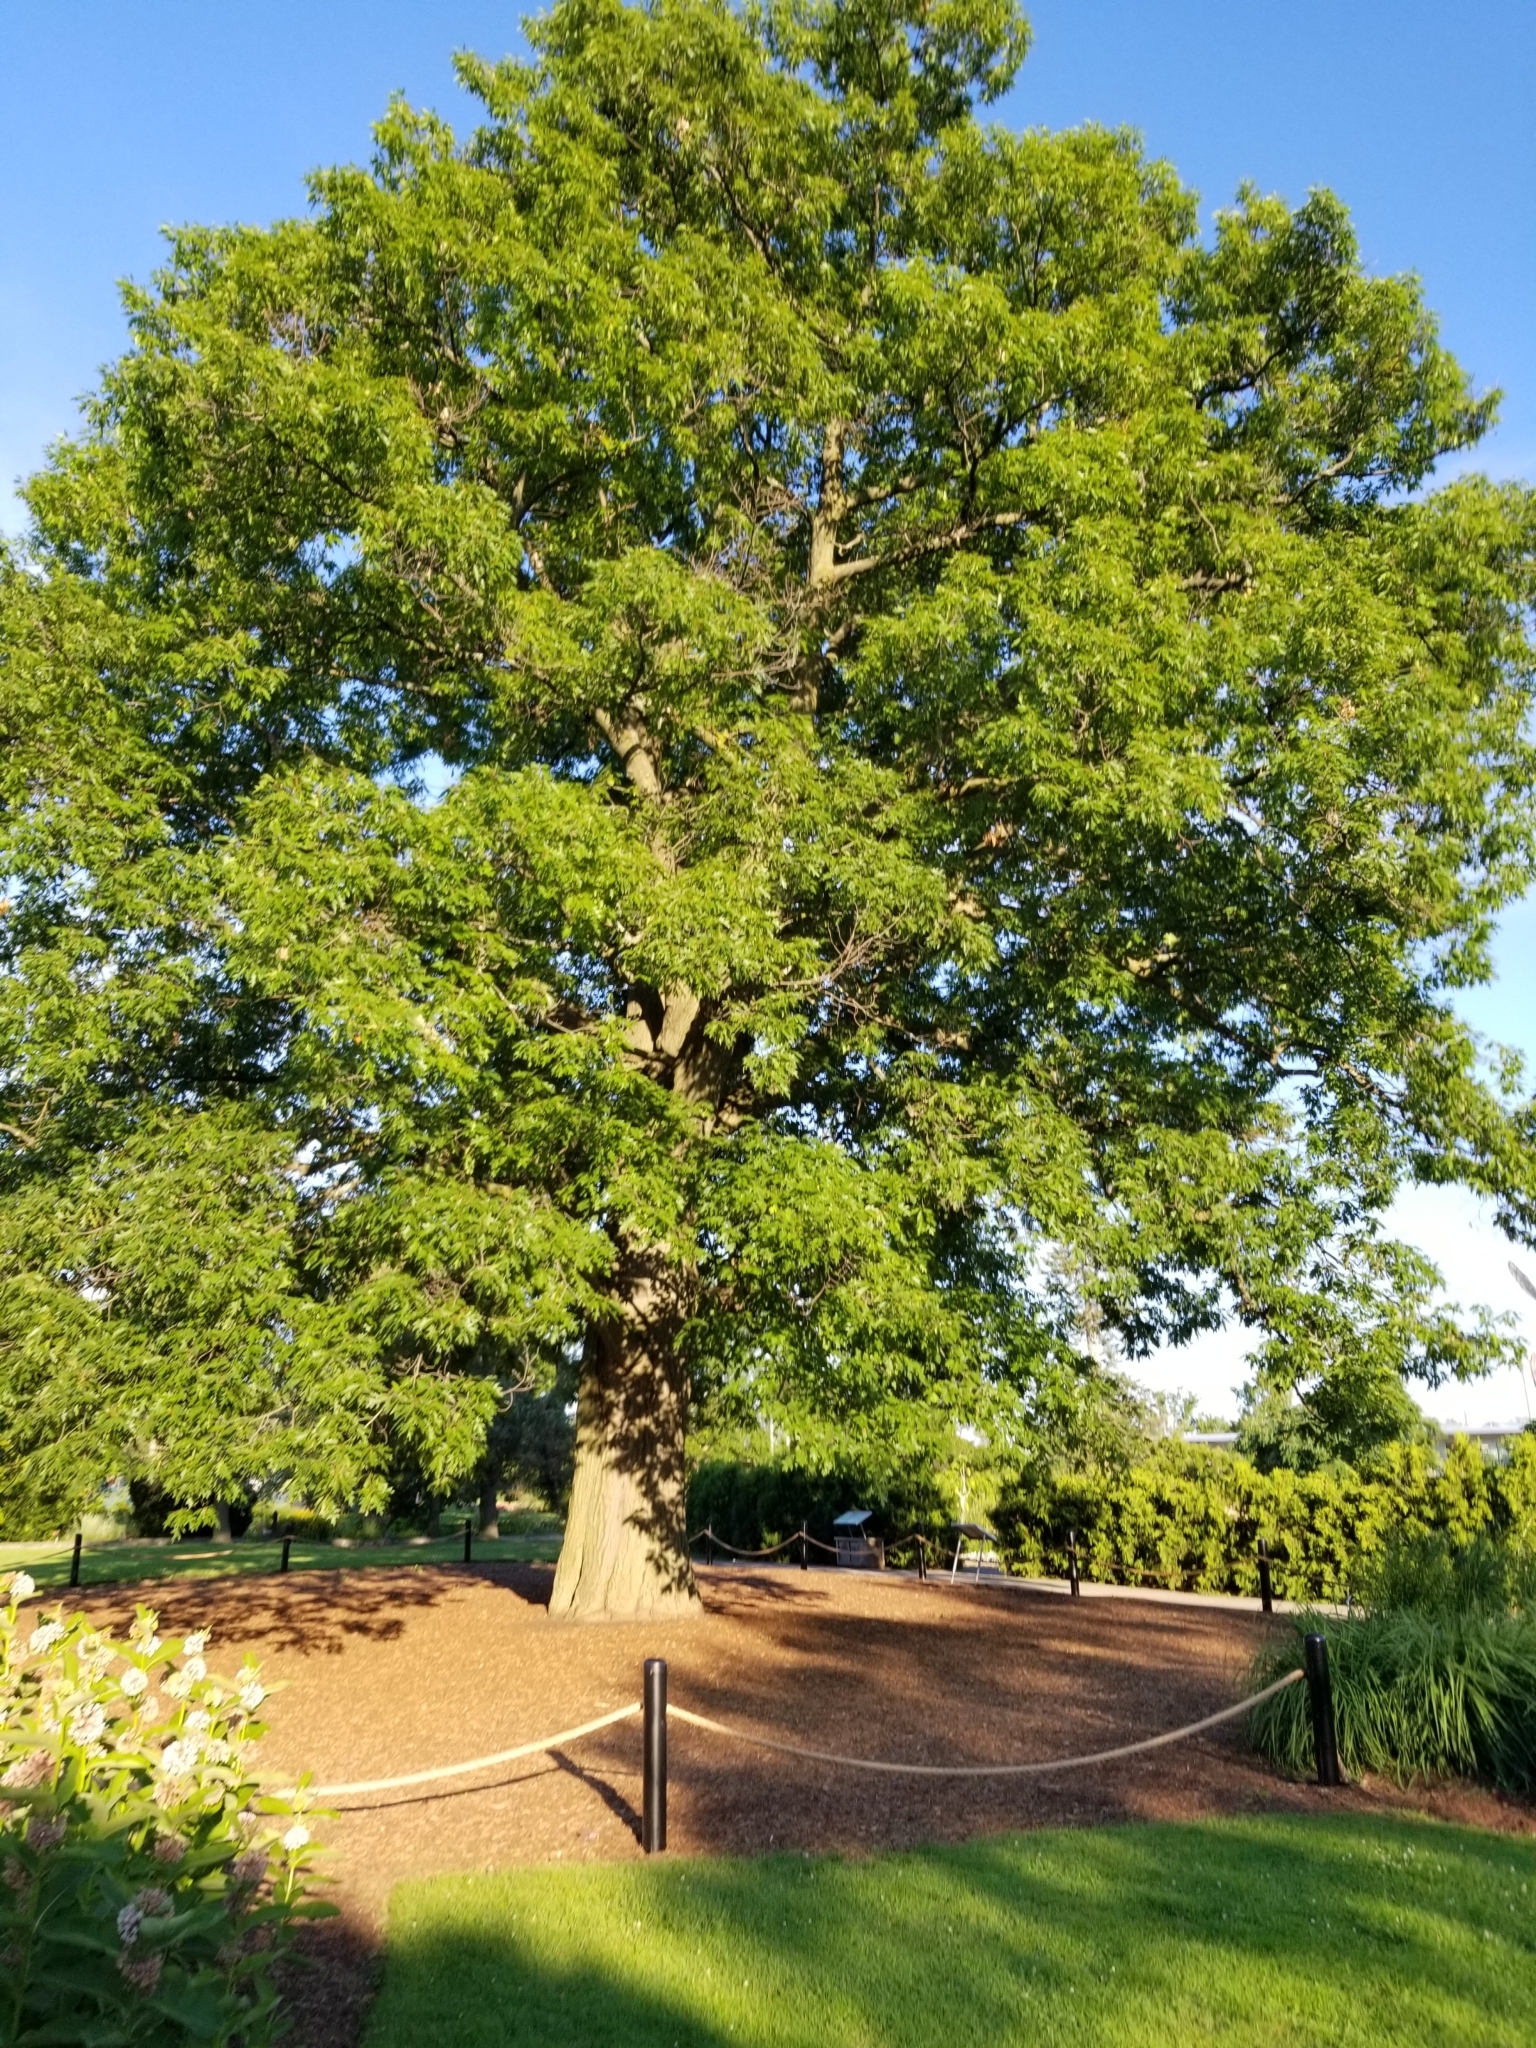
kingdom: Plantae
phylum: Tracheophyta
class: Magnoliopsida
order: Fagales
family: Fagaceae
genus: Quercus
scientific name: Quercus rubra
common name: Red oak
